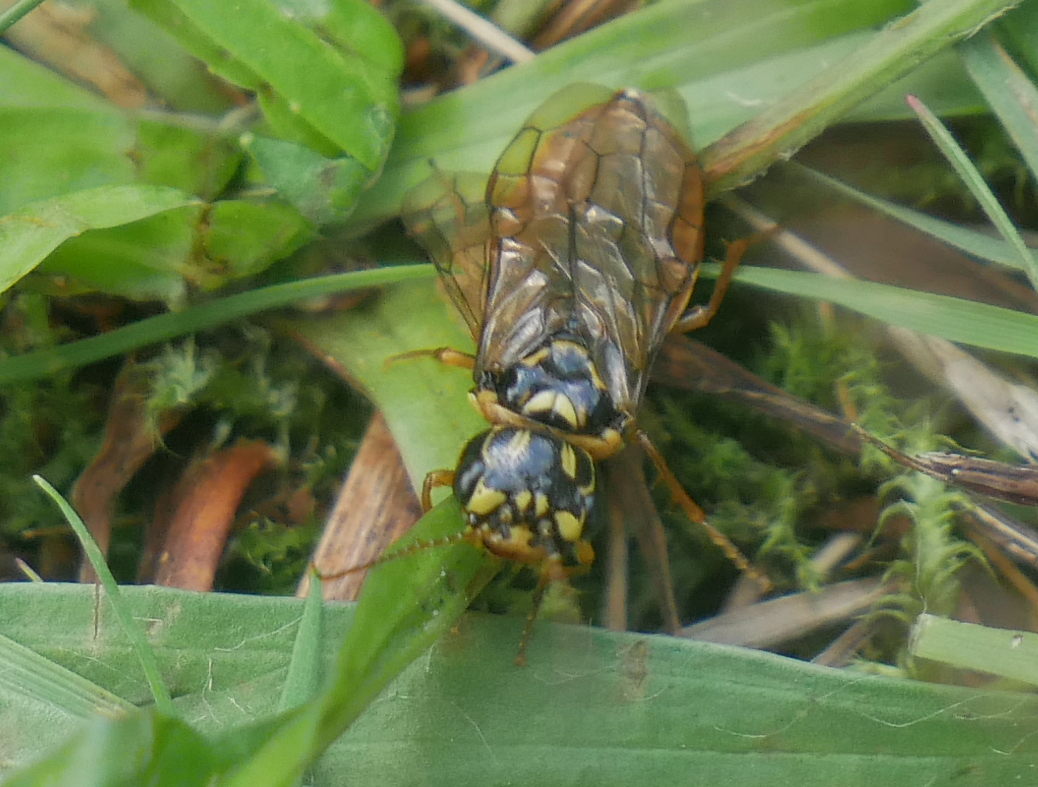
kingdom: Animalia
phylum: Arthropoda
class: Insecta
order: Hymenoptera
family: Pamphiliidae
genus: Acantholyda
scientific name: Acantholyda posticalis
